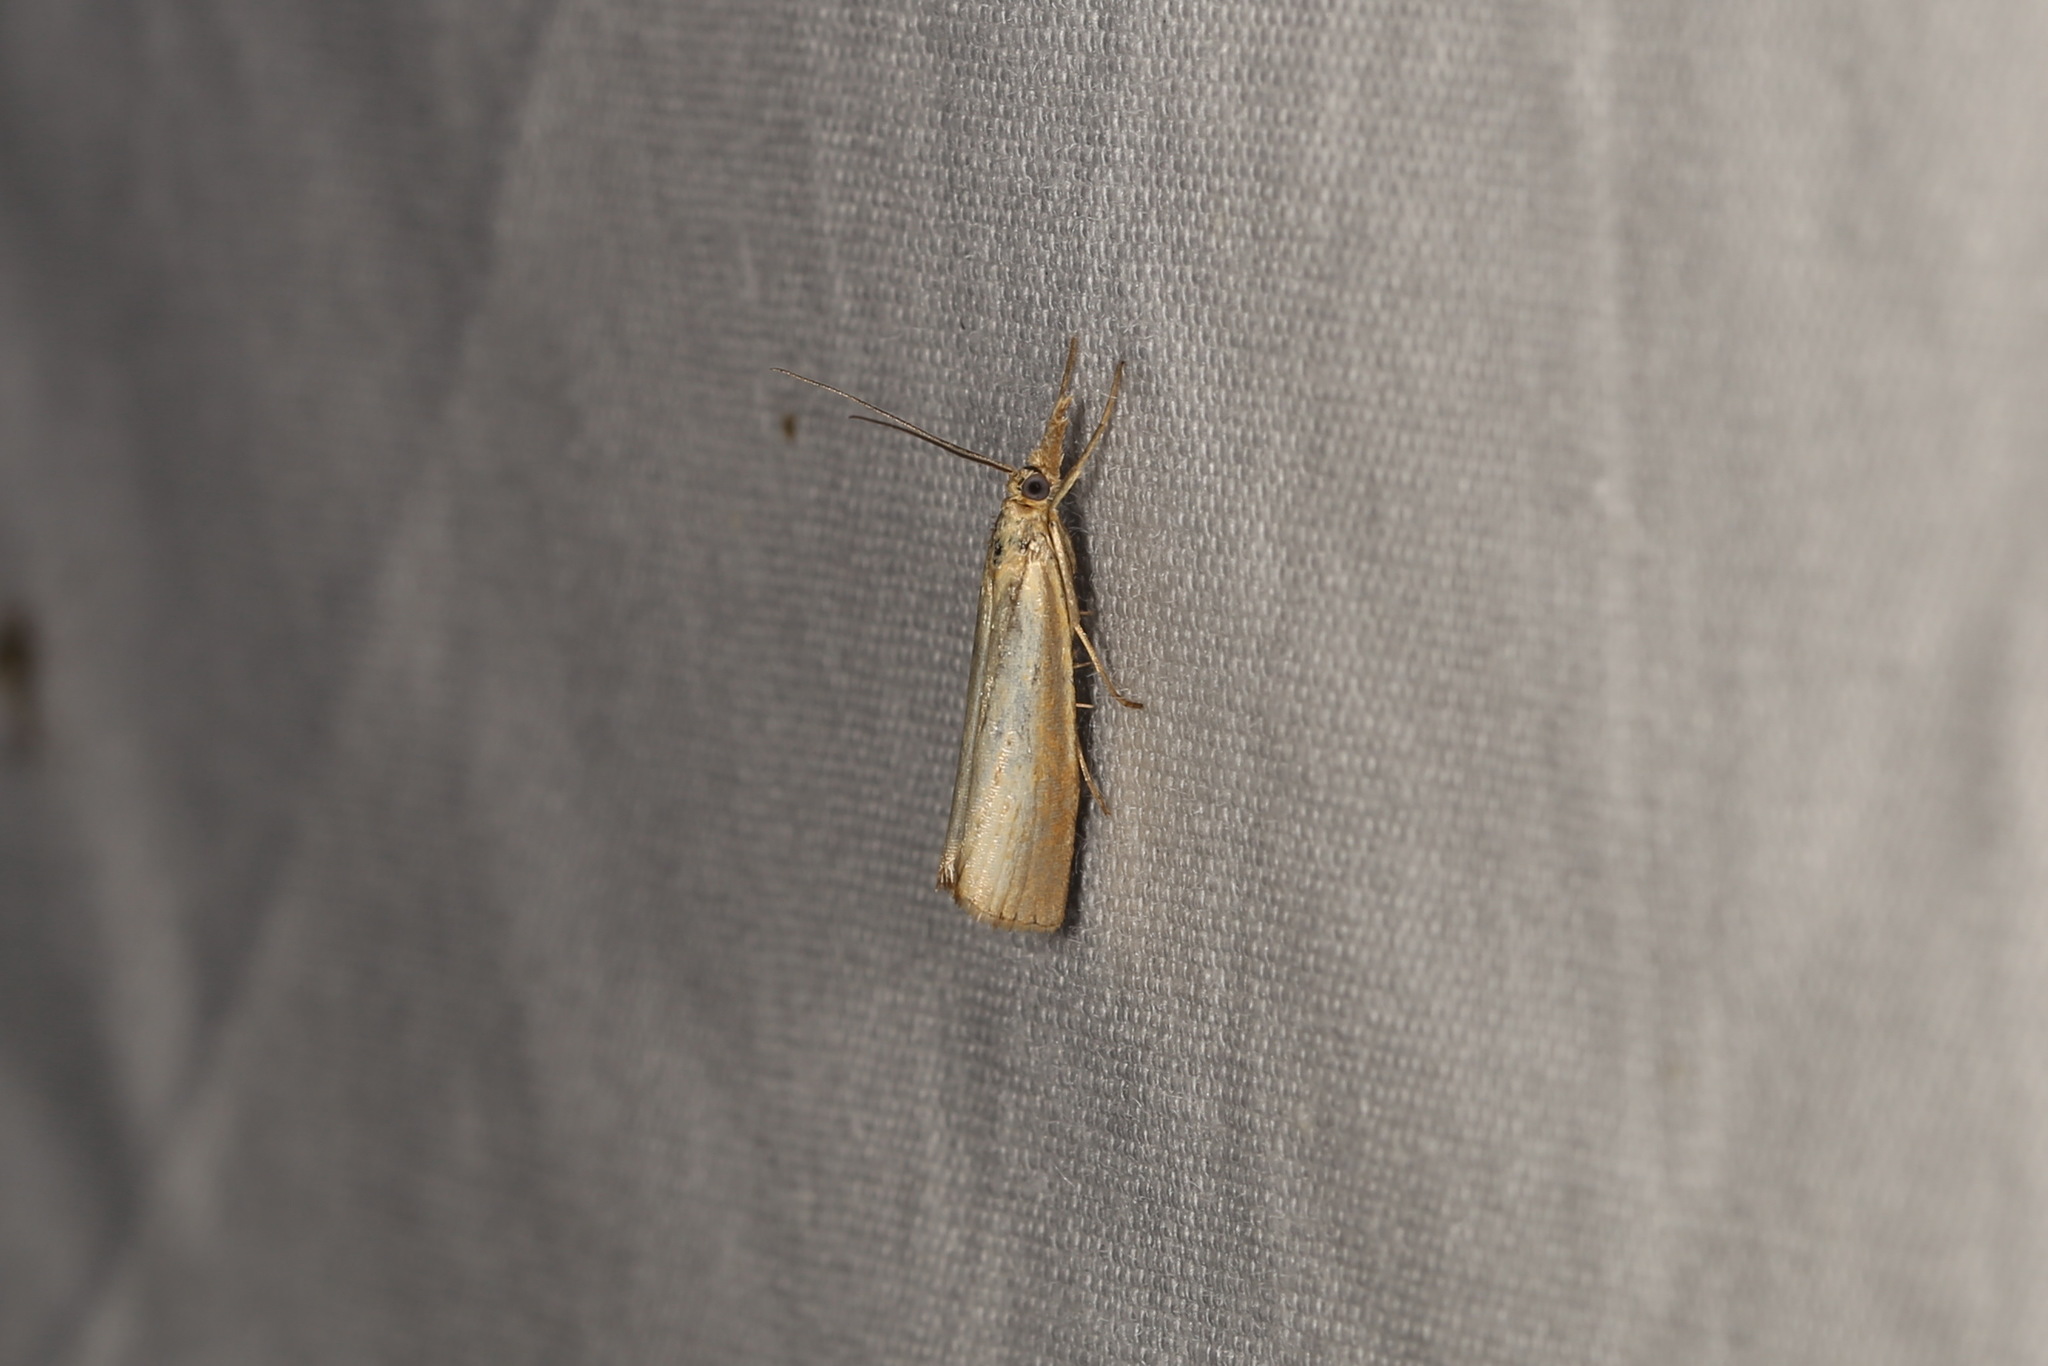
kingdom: Animalia
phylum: Arthropoda
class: Insecta
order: Lepidoptera
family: Crambidae
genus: Agriphila
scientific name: Agriphila straminella
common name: Straw grass-veneer
